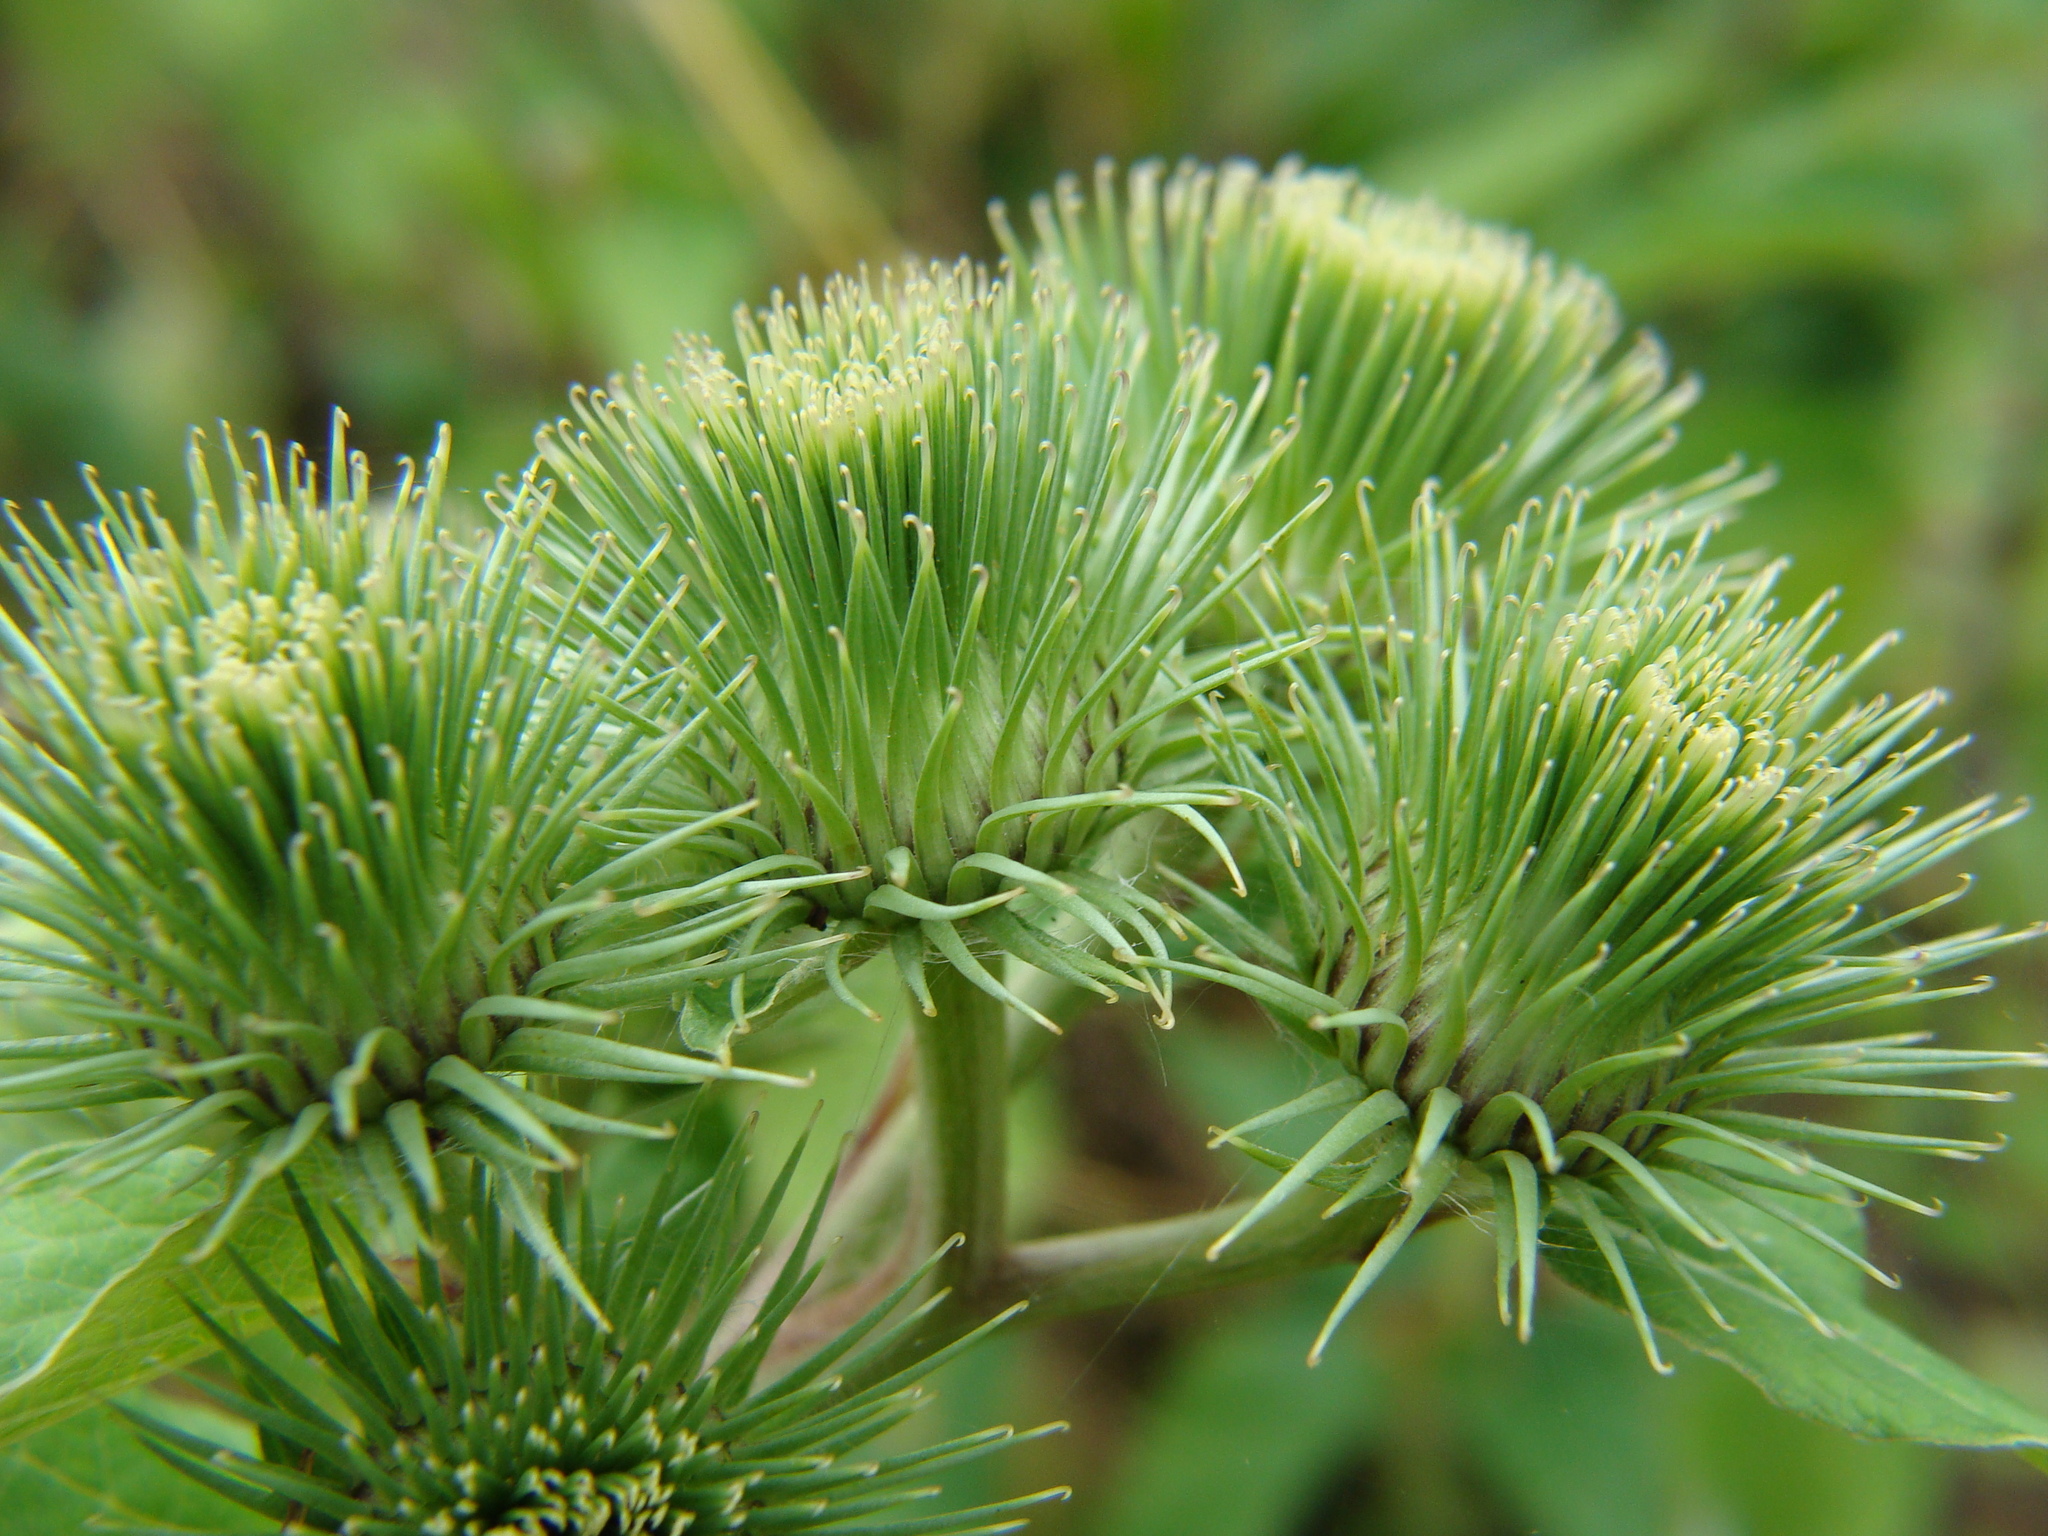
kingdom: Plantae
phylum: Tracheophyta
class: Magnoliopsida
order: Asterales
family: Asteraceae
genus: Arctium
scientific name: Arctium lappa
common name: Greater burdock
